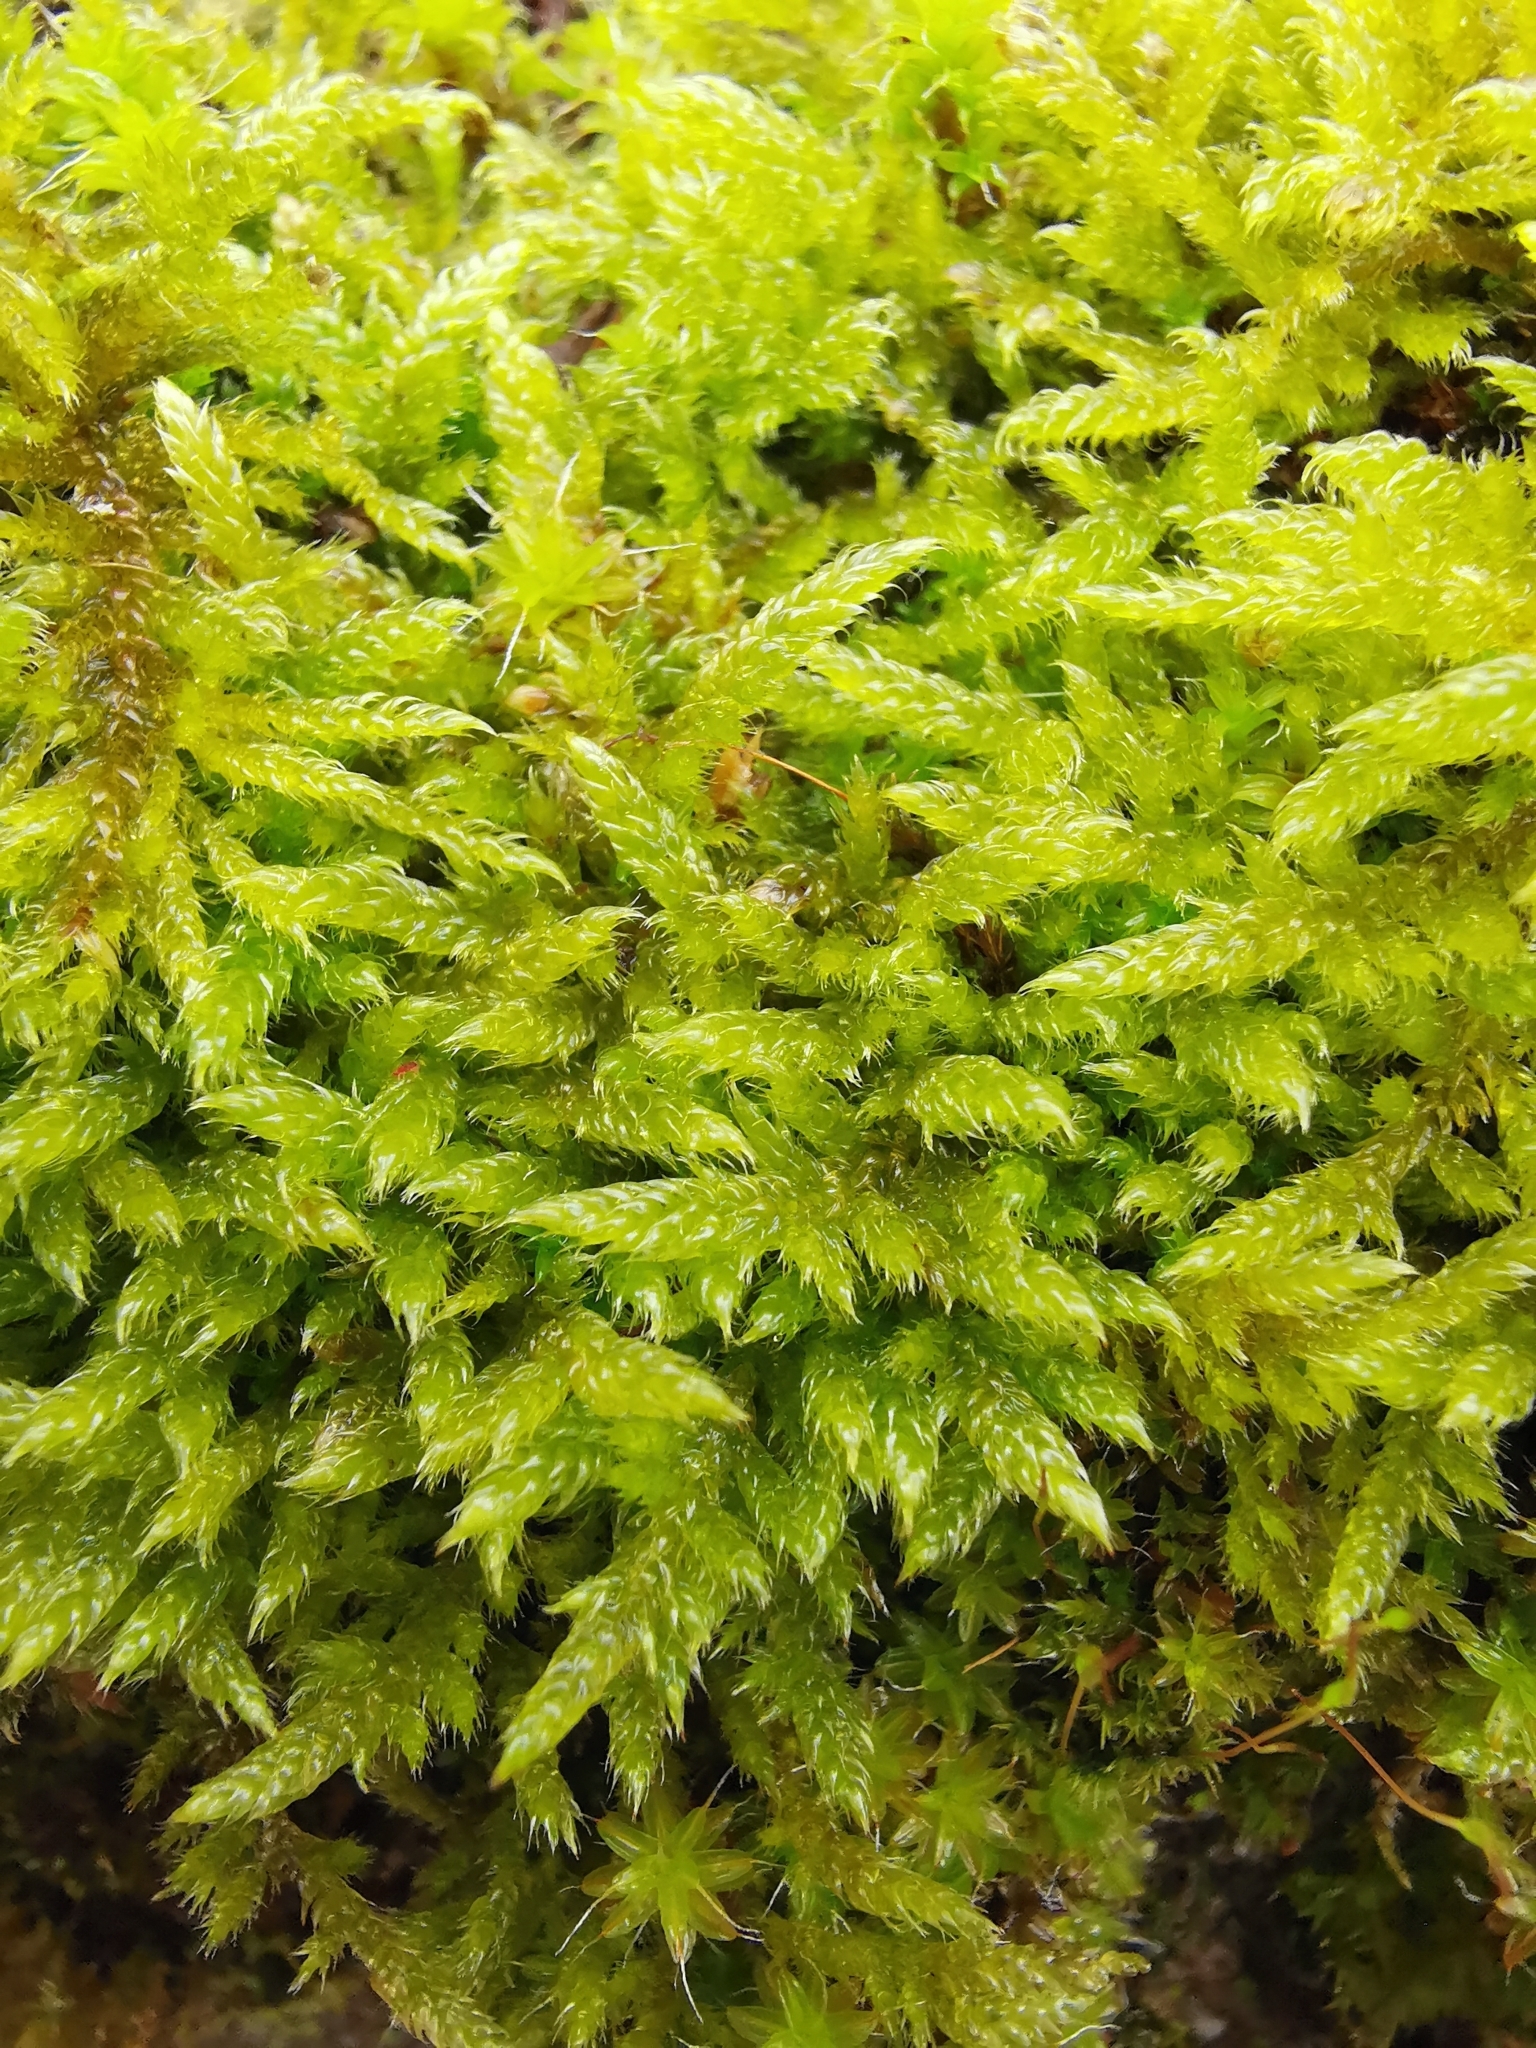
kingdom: Plantae
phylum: Bryophyta
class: Bryopsida
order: Hypnales
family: Hypnaceae
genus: Hypnum
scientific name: Hypnum cupressiforme
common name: Cypress-leaved plait-moss
